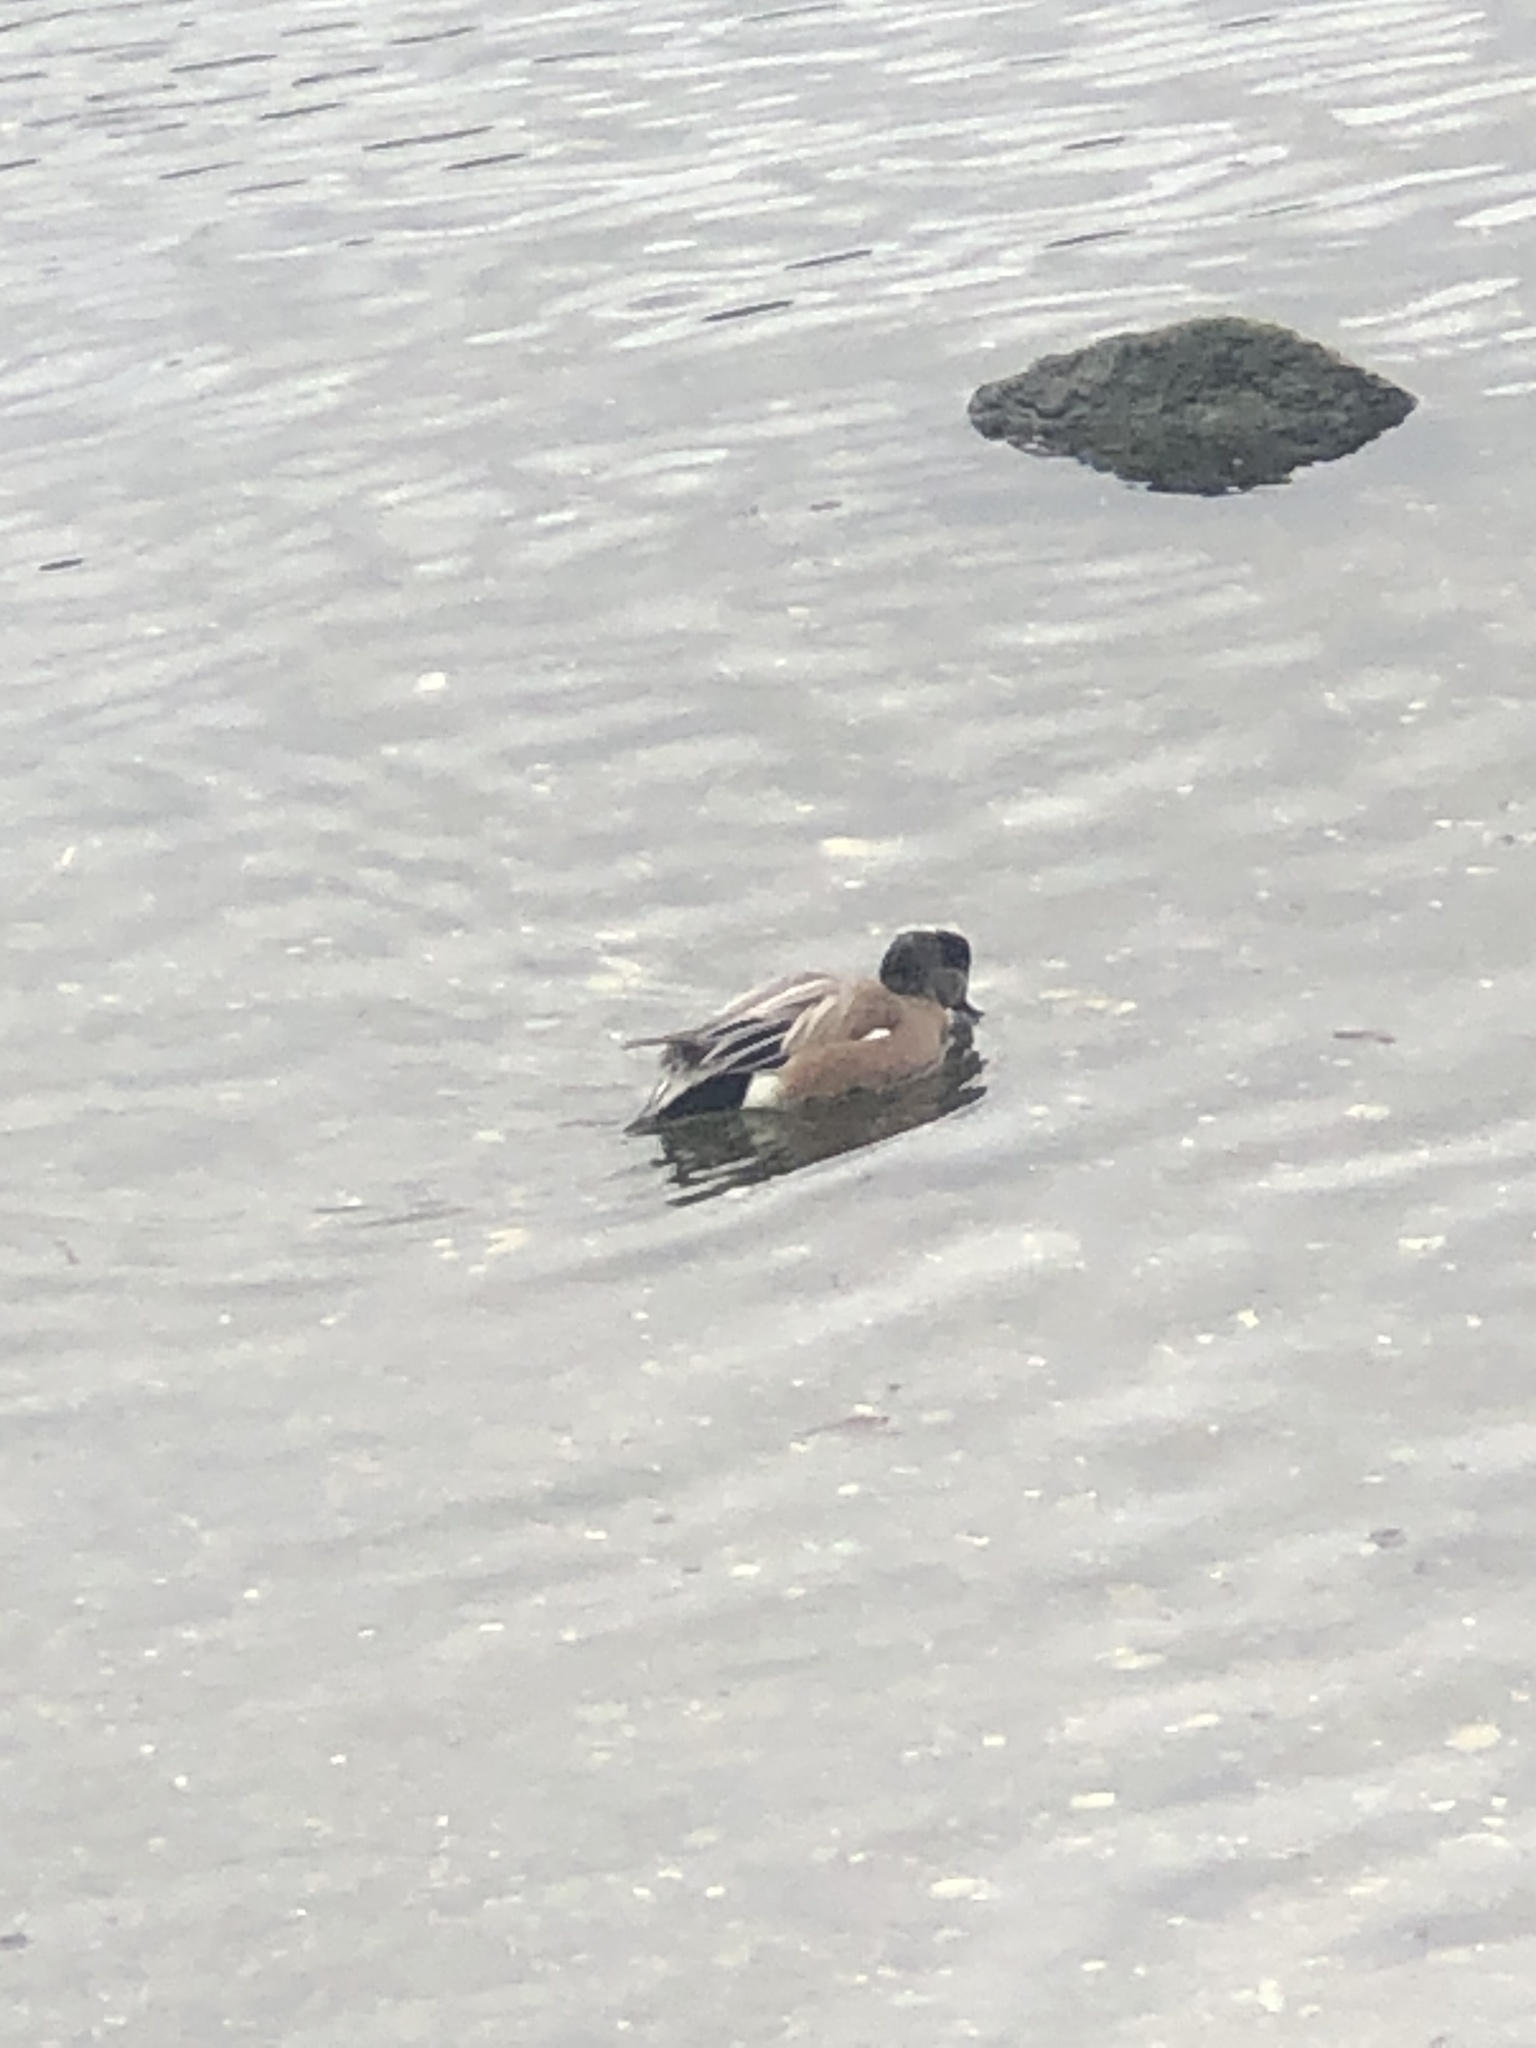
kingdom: Animalia
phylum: Chordata
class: Aves
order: Anseriformes
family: Anatidae
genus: Mareca
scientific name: Mareca americana
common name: American wigeon
